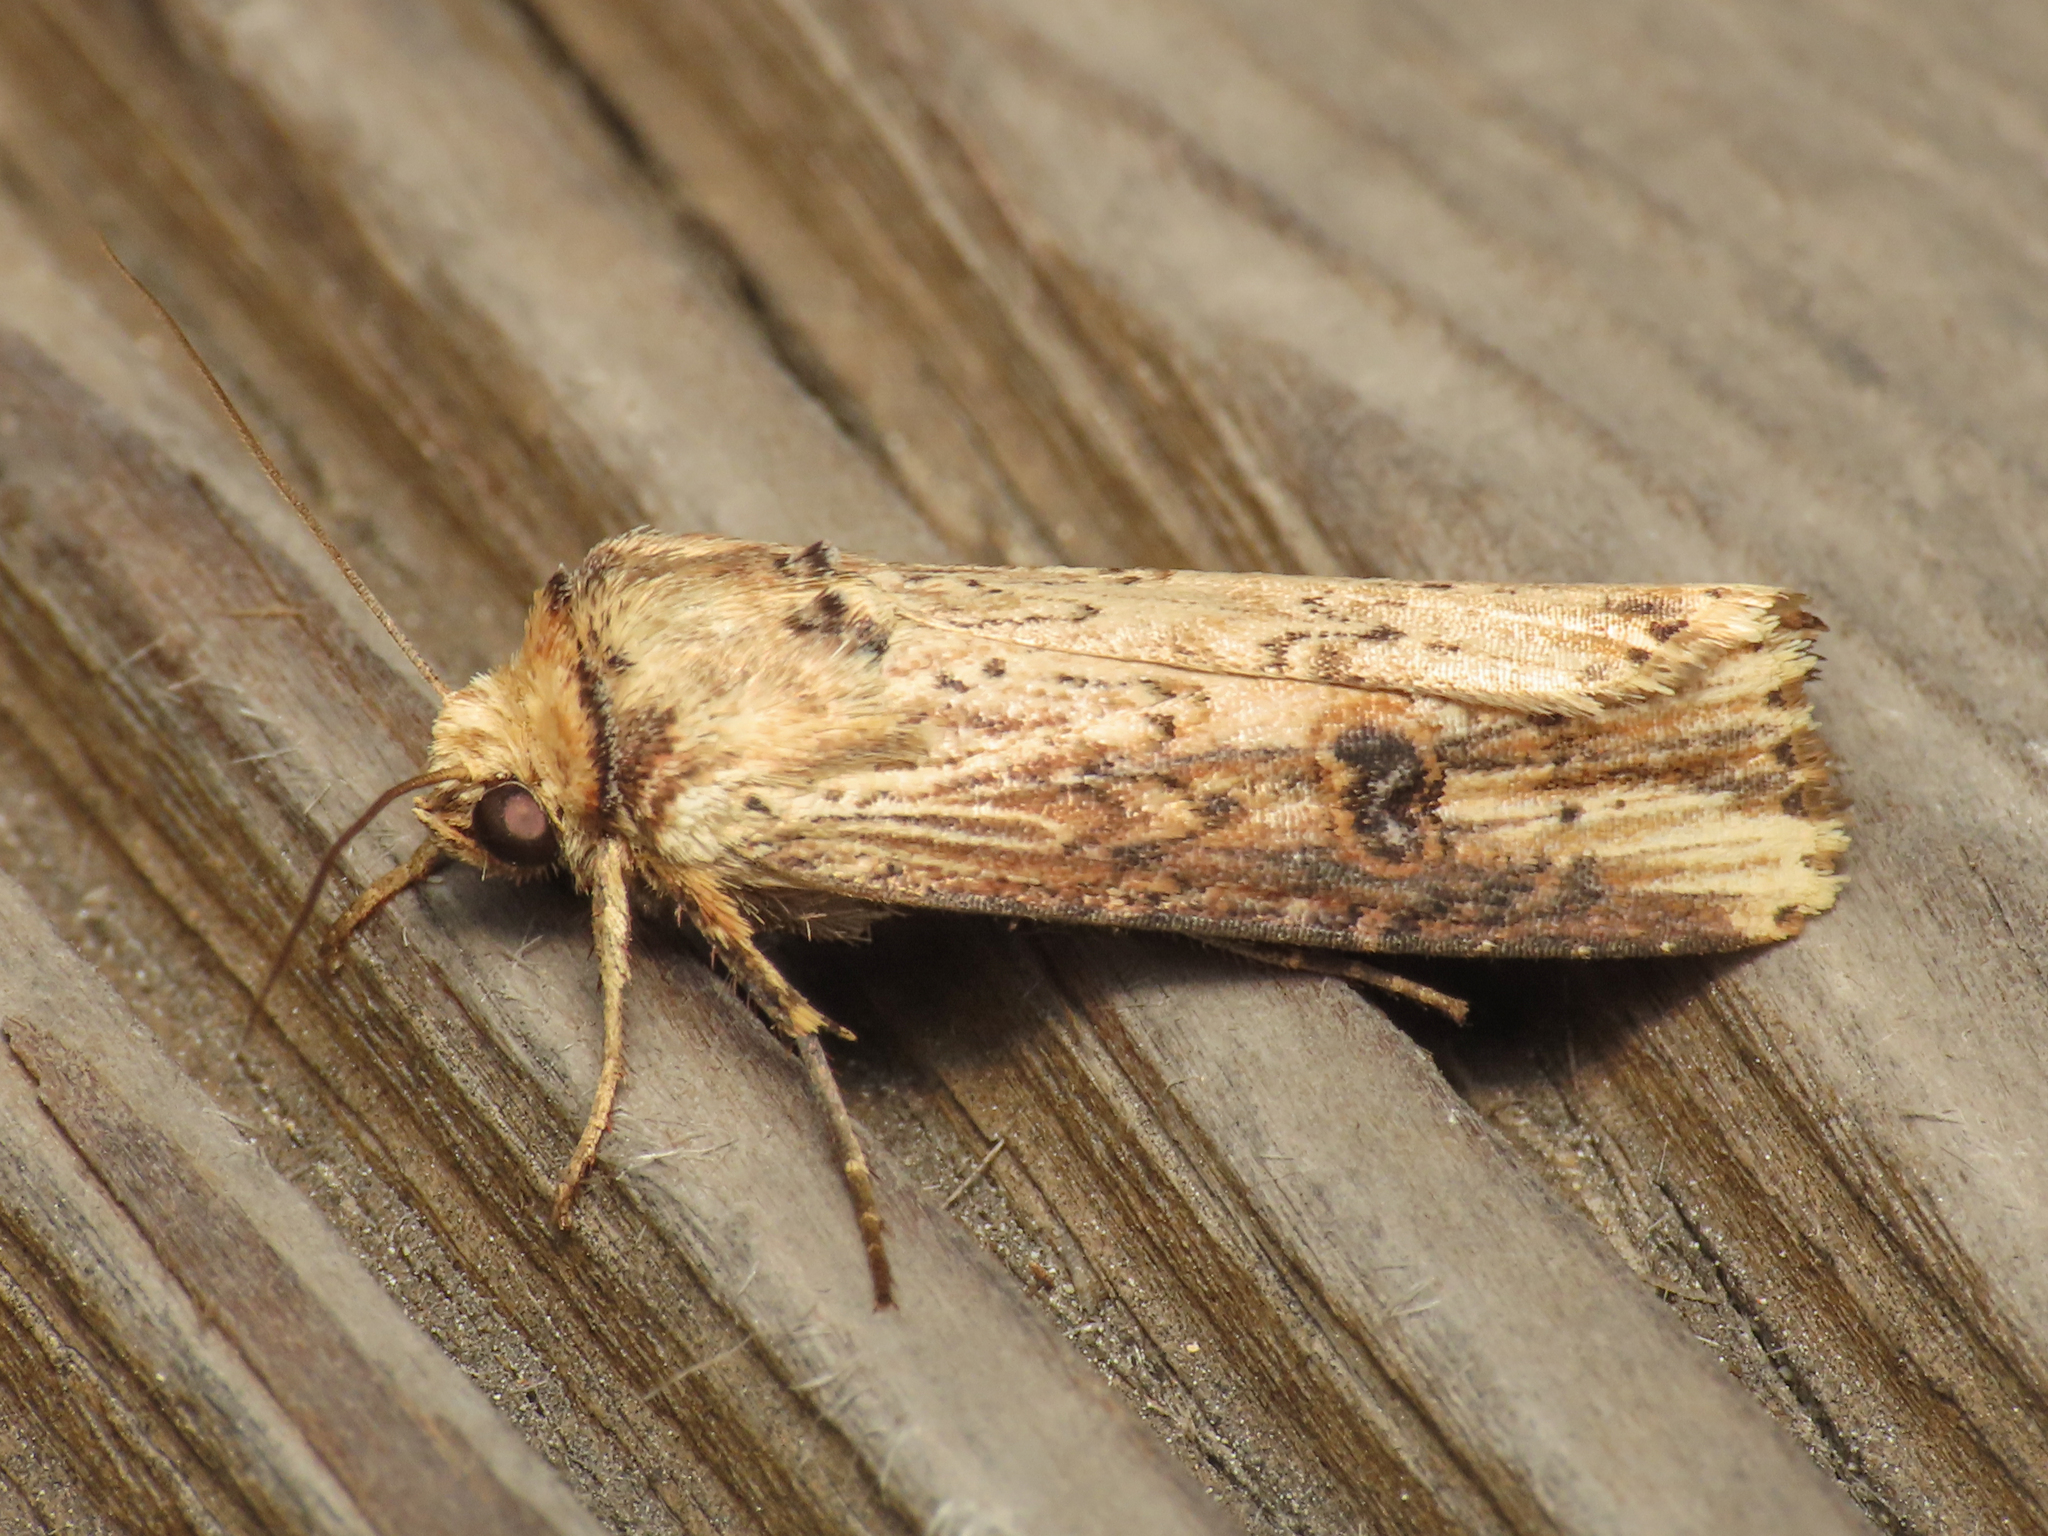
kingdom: Animalia
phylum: Arthropoda
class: Insecta
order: Lepidoptera
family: Noctuidae
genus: Axylia
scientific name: Axylia putris
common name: Flame
